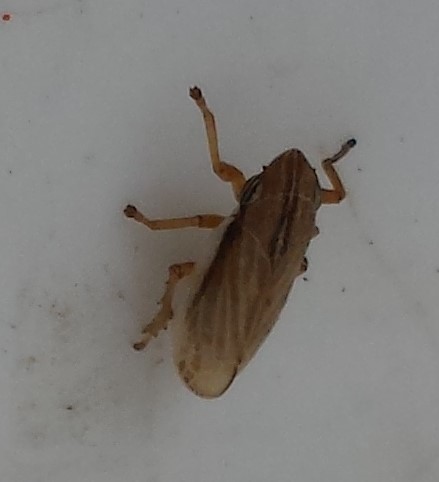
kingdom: Animalia
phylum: Arthropoda
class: Insecta
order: Hemiptera
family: Aphrophoridae
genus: Philaenarcys
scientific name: Philaenarcys bilineata
